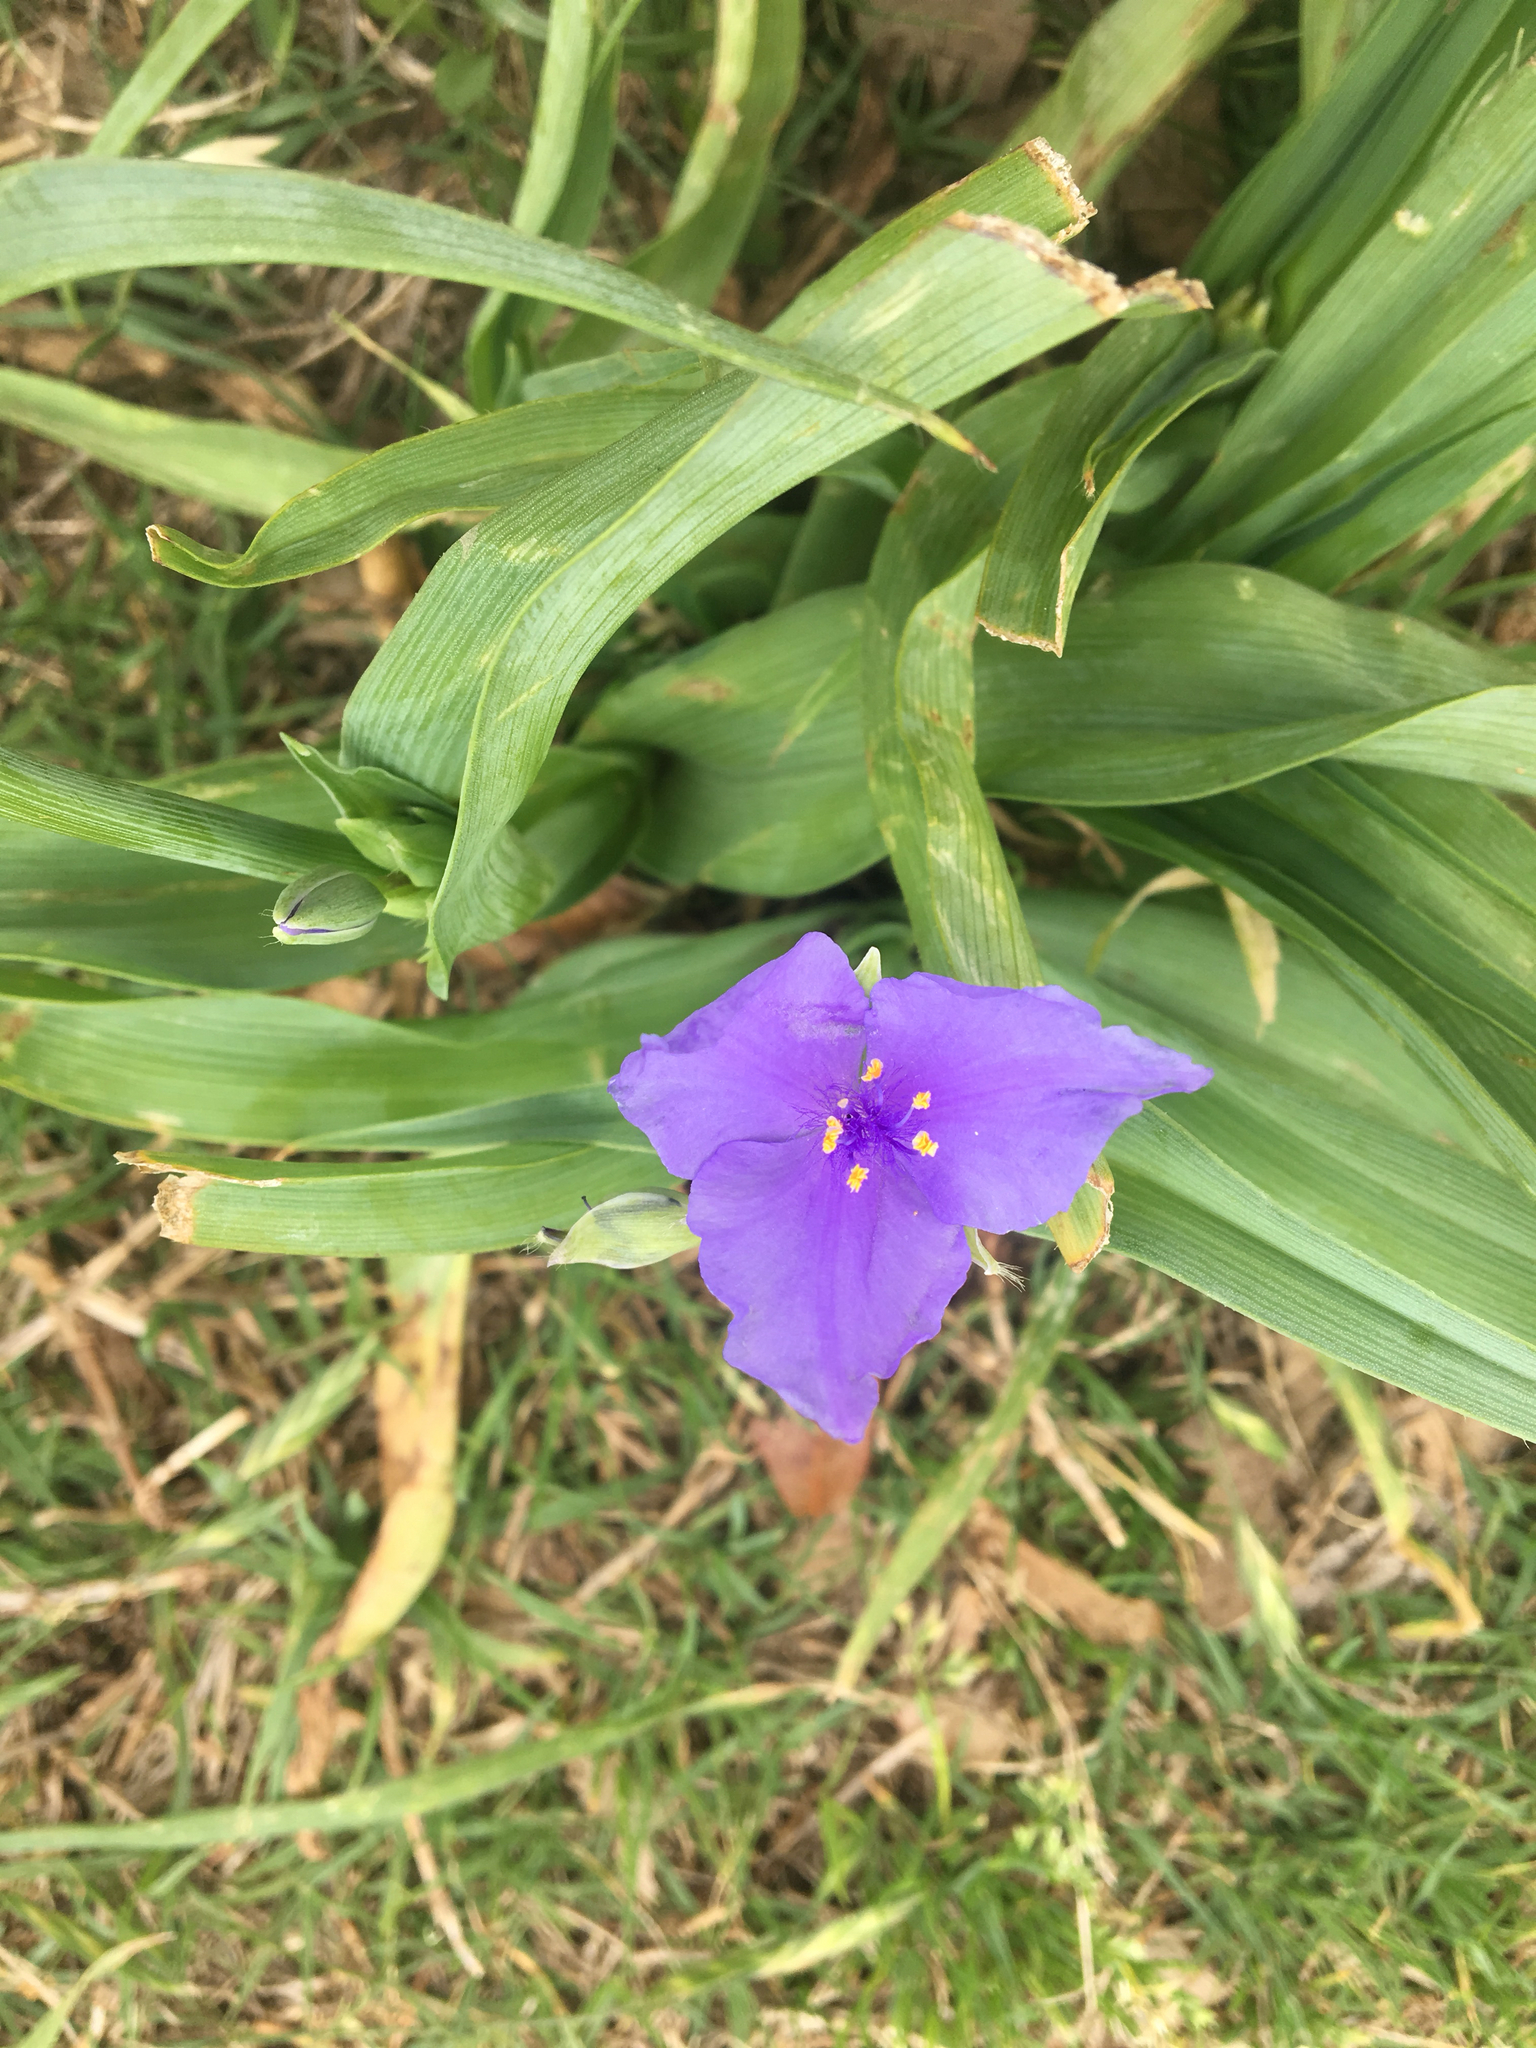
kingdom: Plantae
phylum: Tracheophyta
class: Liliopsida
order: Commelinales
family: Commelinaceae
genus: Tradescantia
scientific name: Tradescantia ohiensis
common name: Ohio spiderwort
